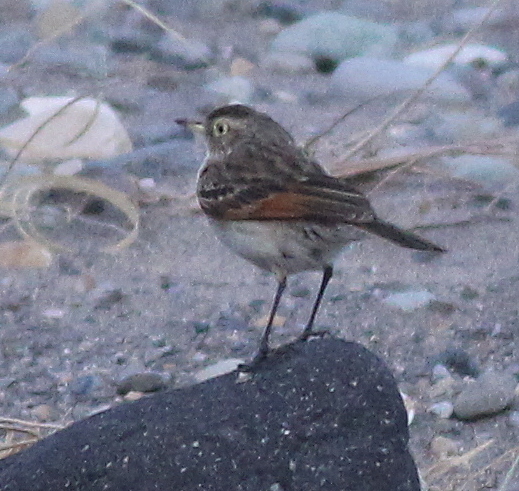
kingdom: Animalia
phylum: Chordata
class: Aves
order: Passeriformes
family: Tyrannidae
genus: Hymenops
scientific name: Hymenops perspicillatus
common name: Spectacled tyrant
